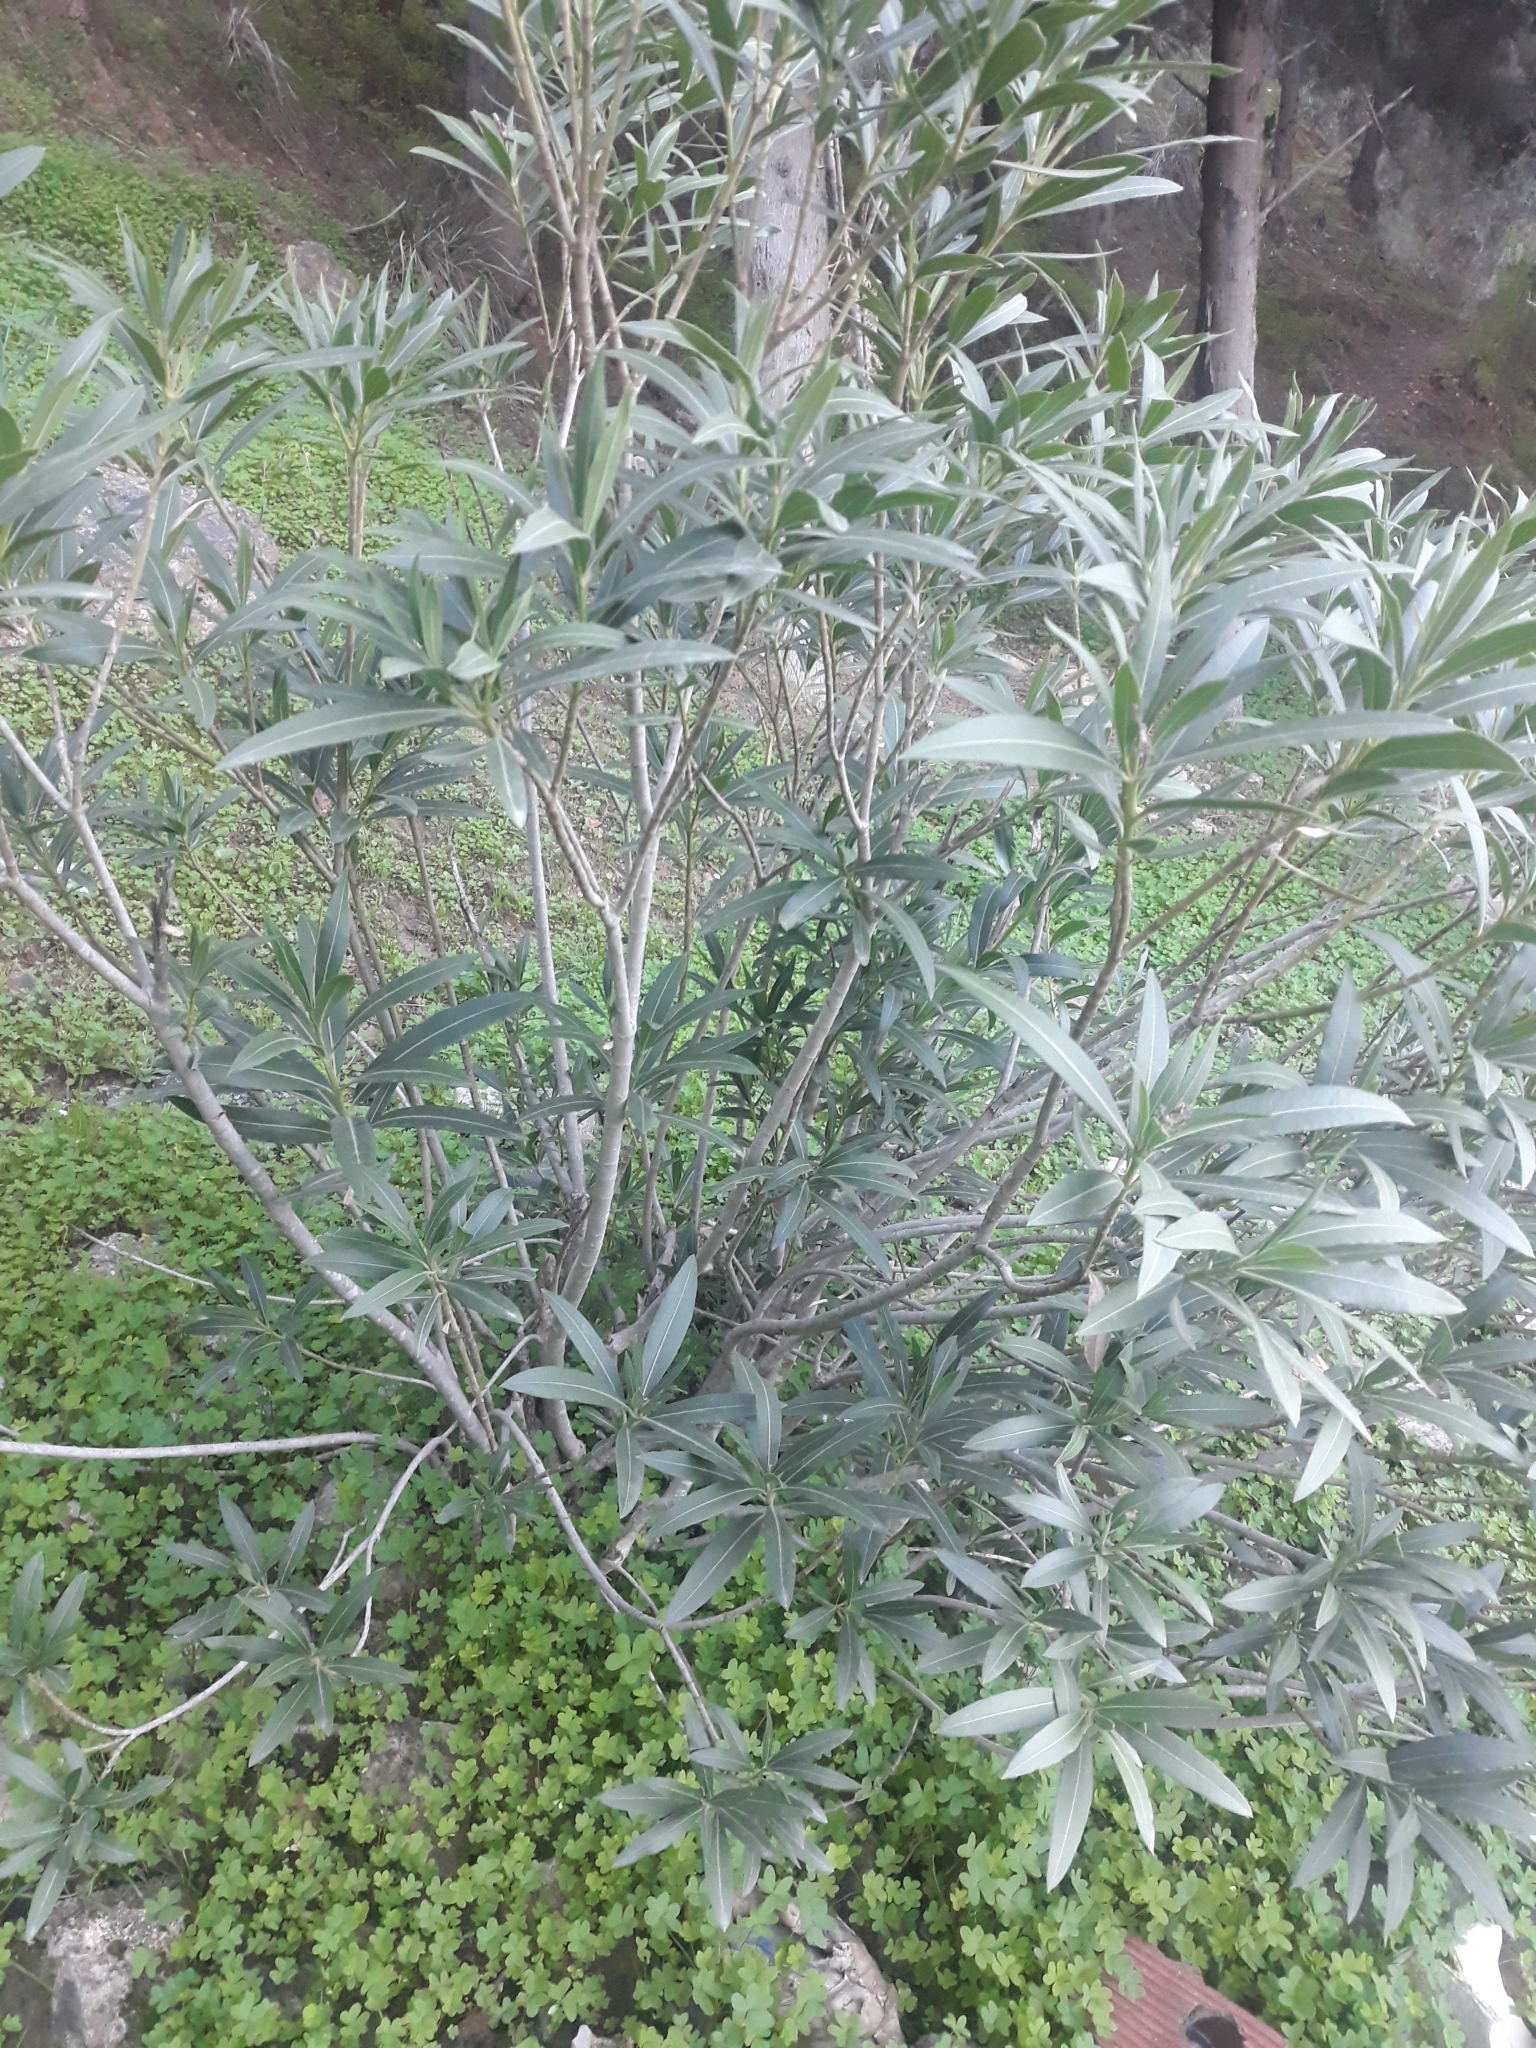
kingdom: Plantae
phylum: Tracheophyta
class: Magnoliopsida
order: Gentianales
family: Apocynaceae
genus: Nerium
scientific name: Nerium oleander
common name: Oleander
